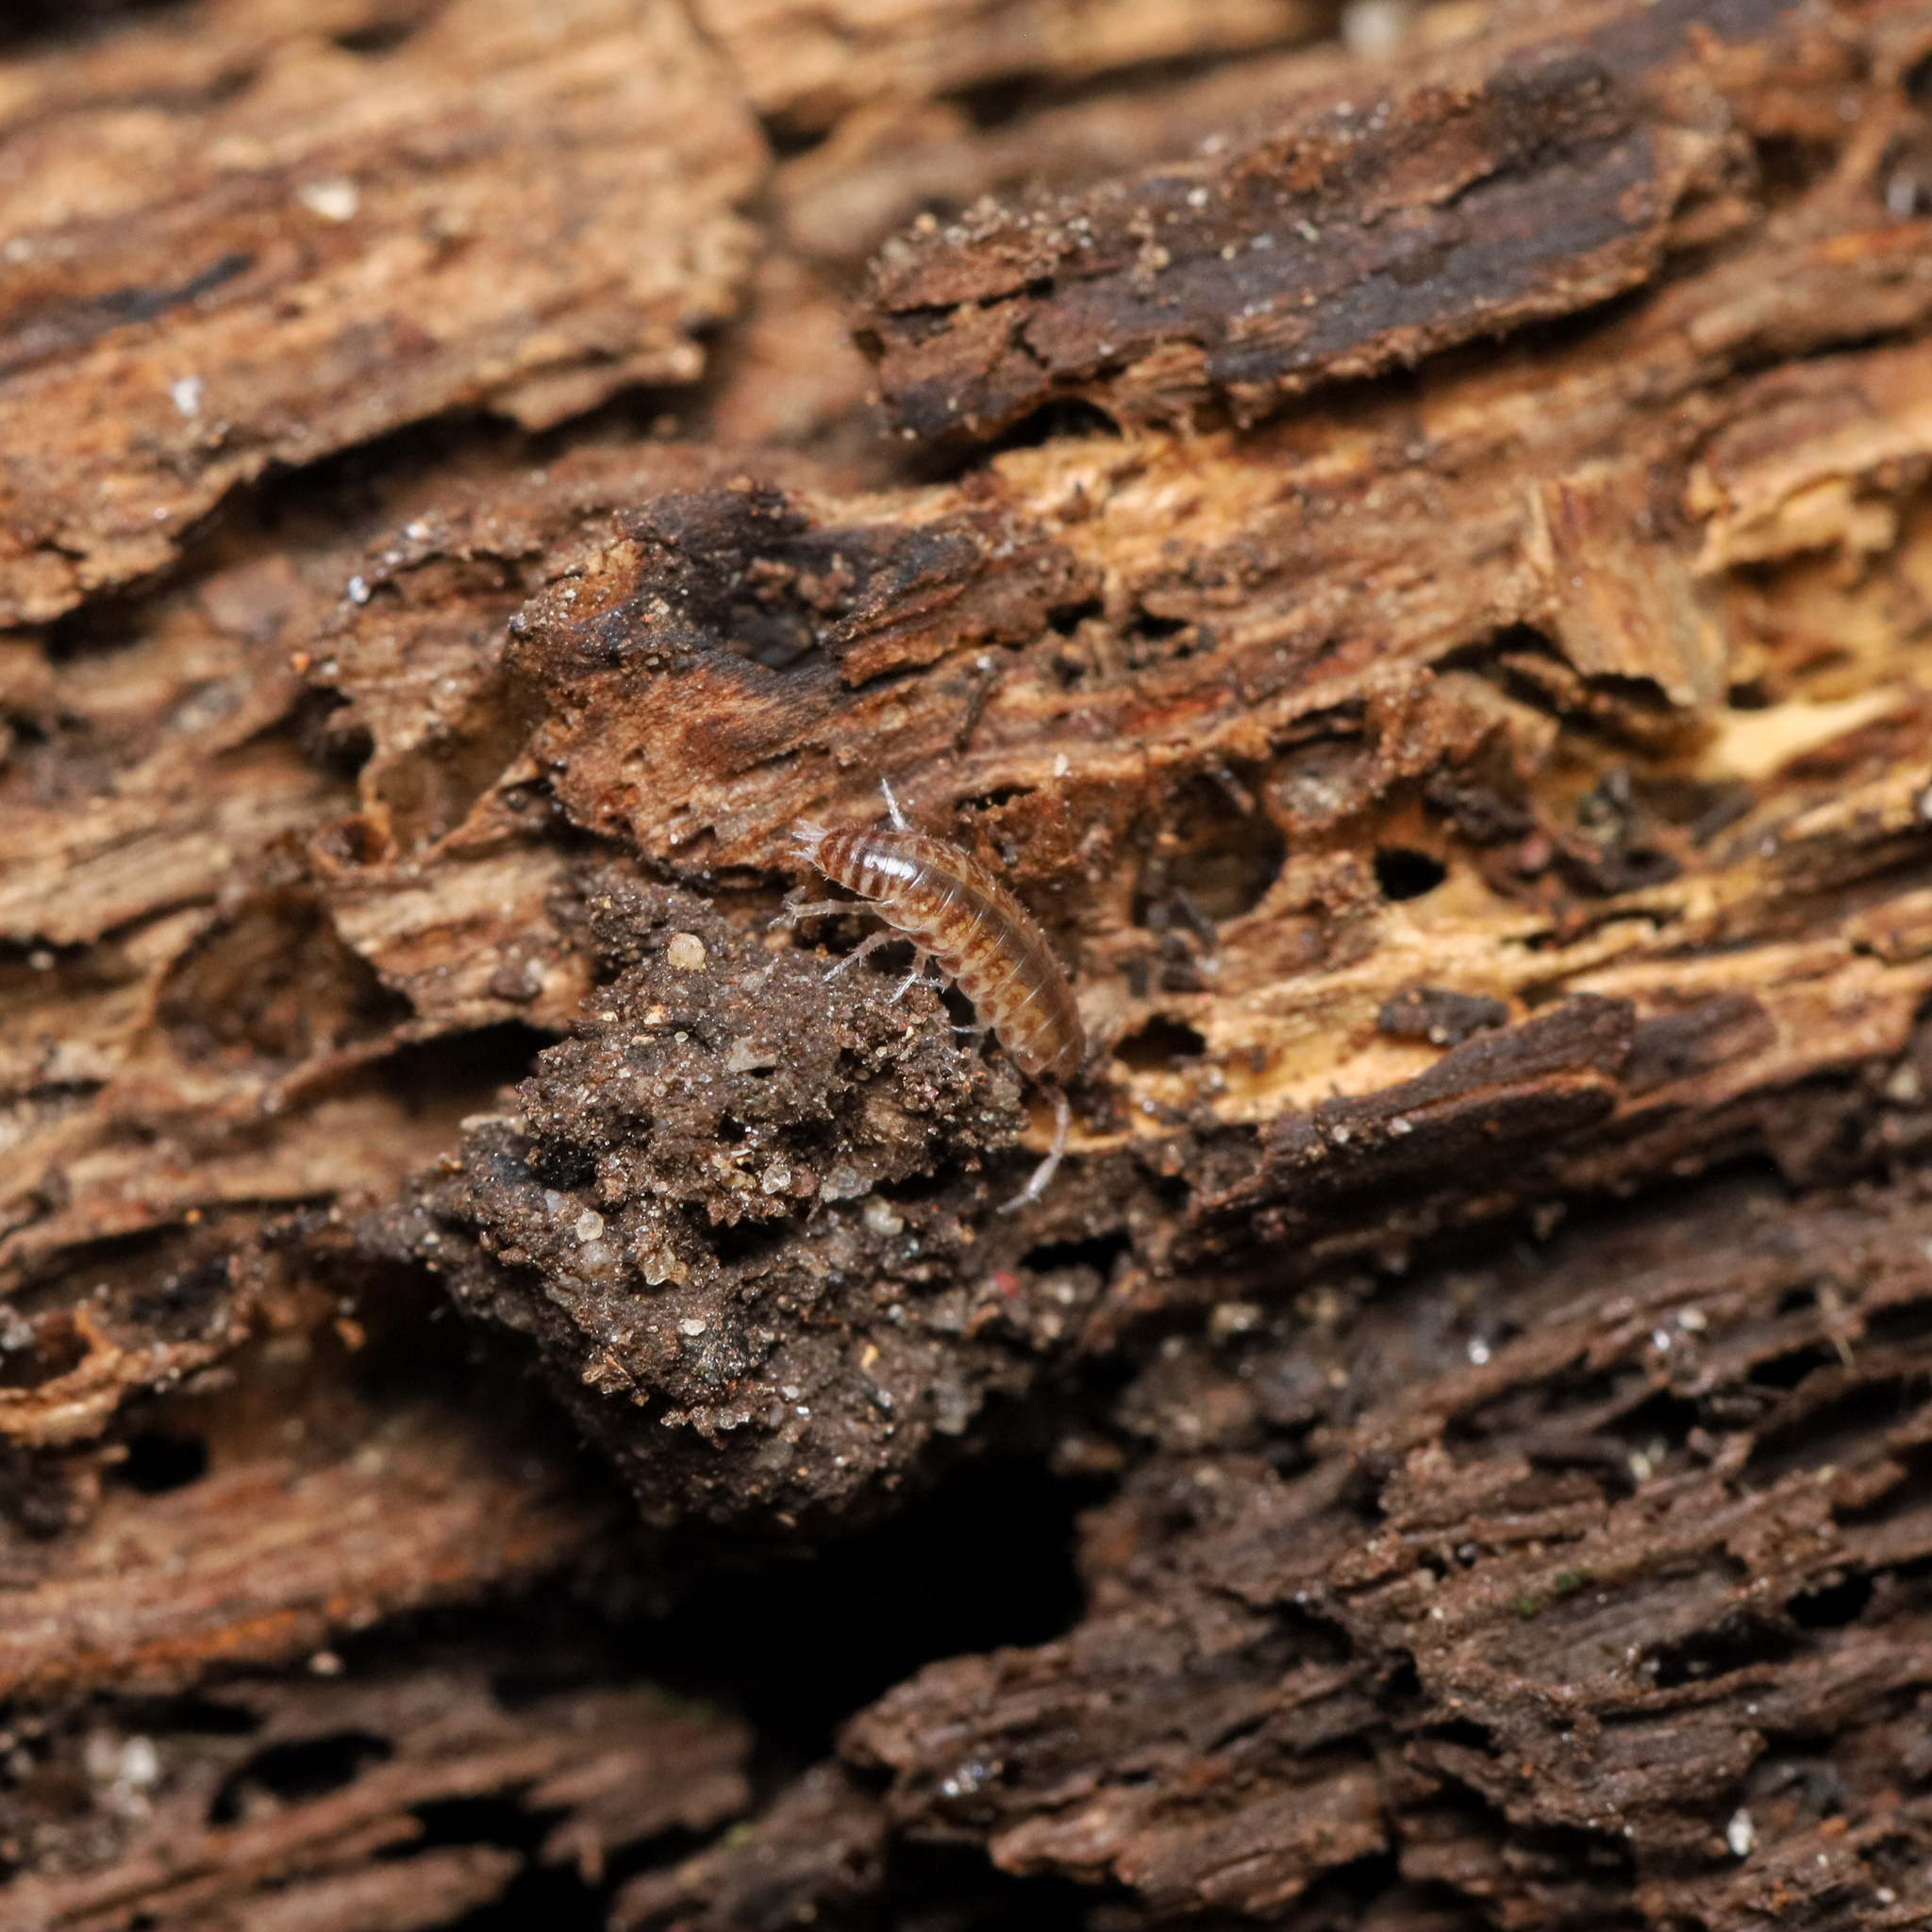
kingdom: Animalia
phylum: Arthropoda
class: Malacostraca
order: Isopoda
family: Philosciidae
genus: Chaetophiloscia
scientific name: Chaetophiloscia sicula
